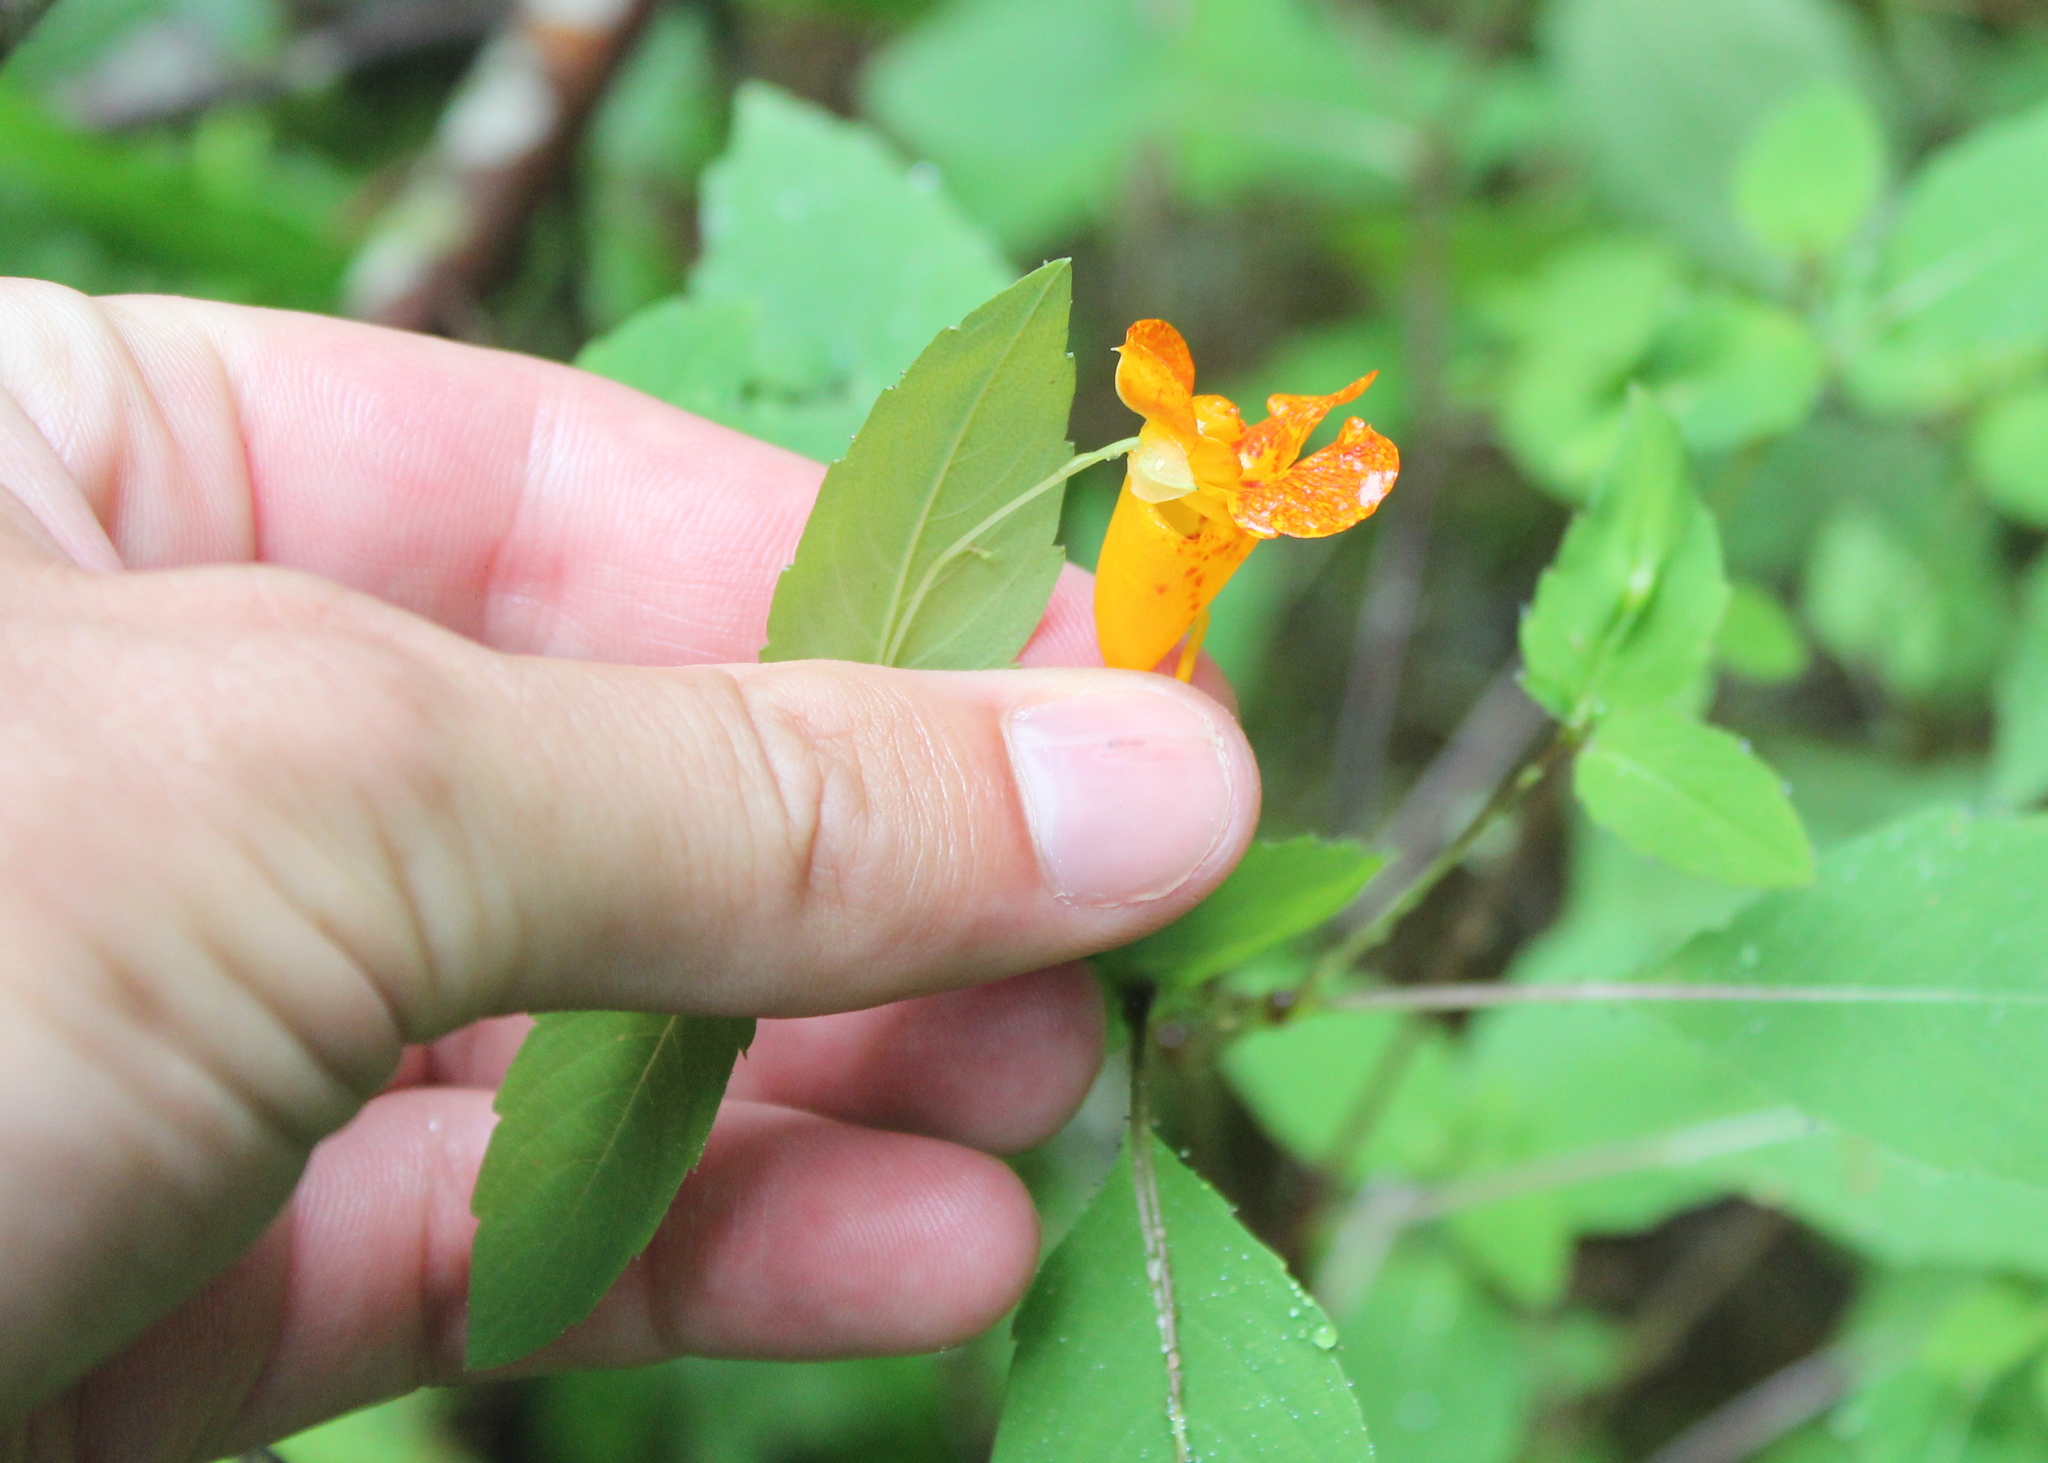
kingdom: Plantae
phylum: Tracheophyta
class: Magnoliopsida
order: Ericales
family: Balsaminaceae
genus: Impatiens
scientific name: Impatiens capensis
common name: Orange balsam
